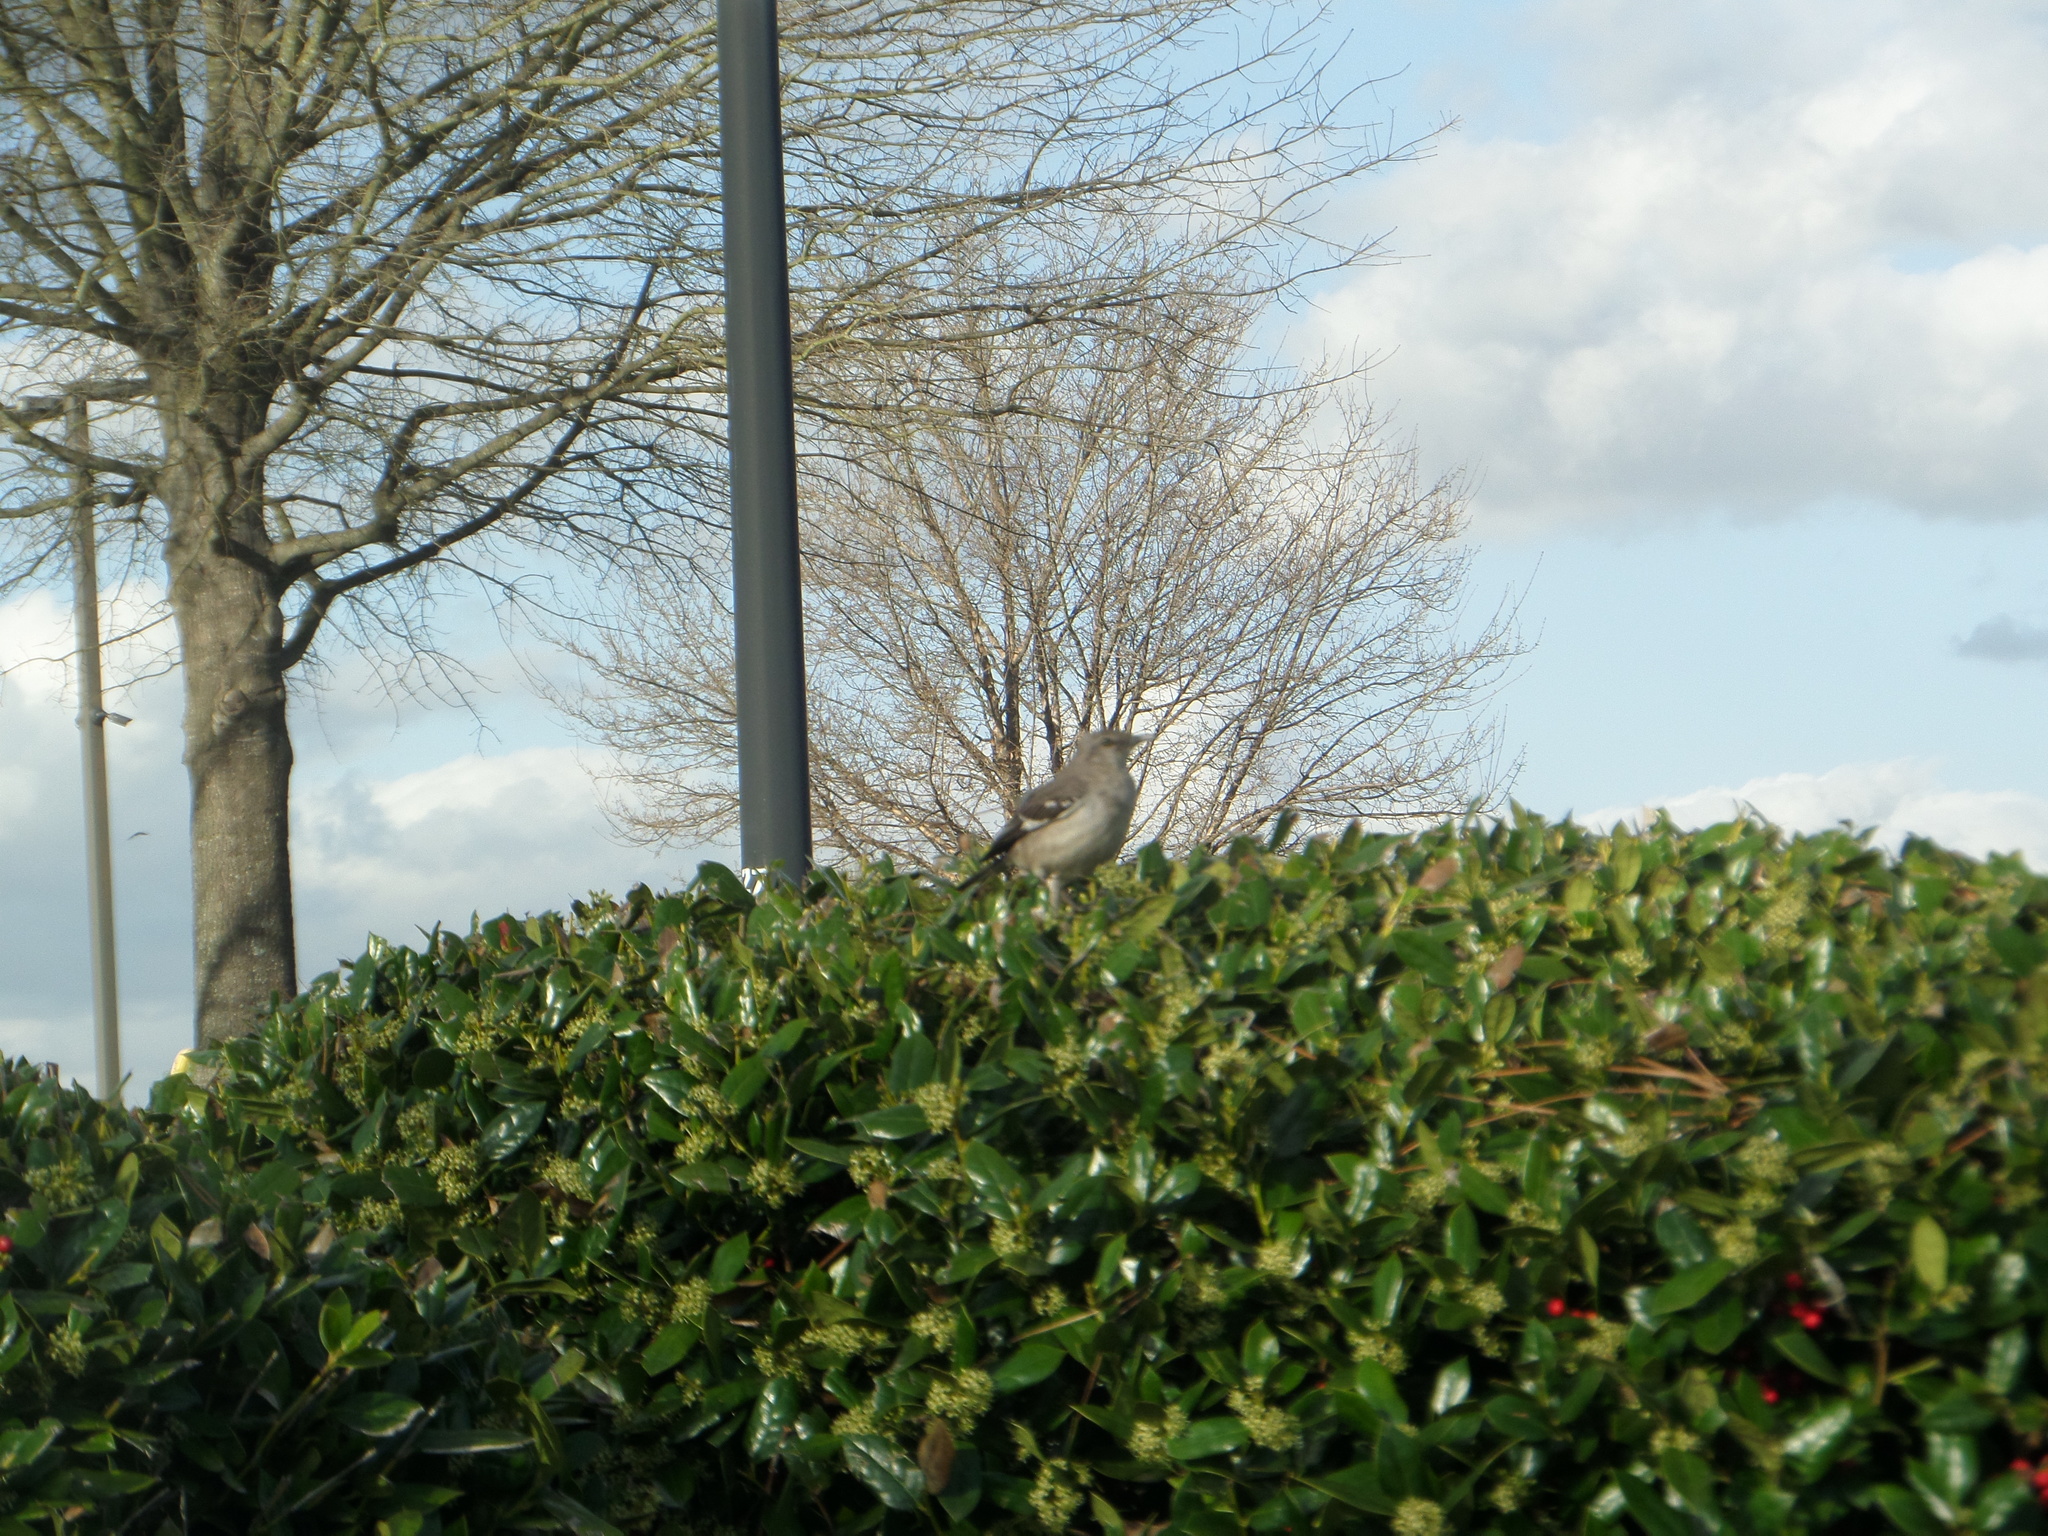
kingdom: Animalia
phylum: Chordata
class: Aves
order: Passeriformes
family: Mimidae
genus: Mimus
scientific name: Mimus polyglottos
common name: Northern mockingbird
